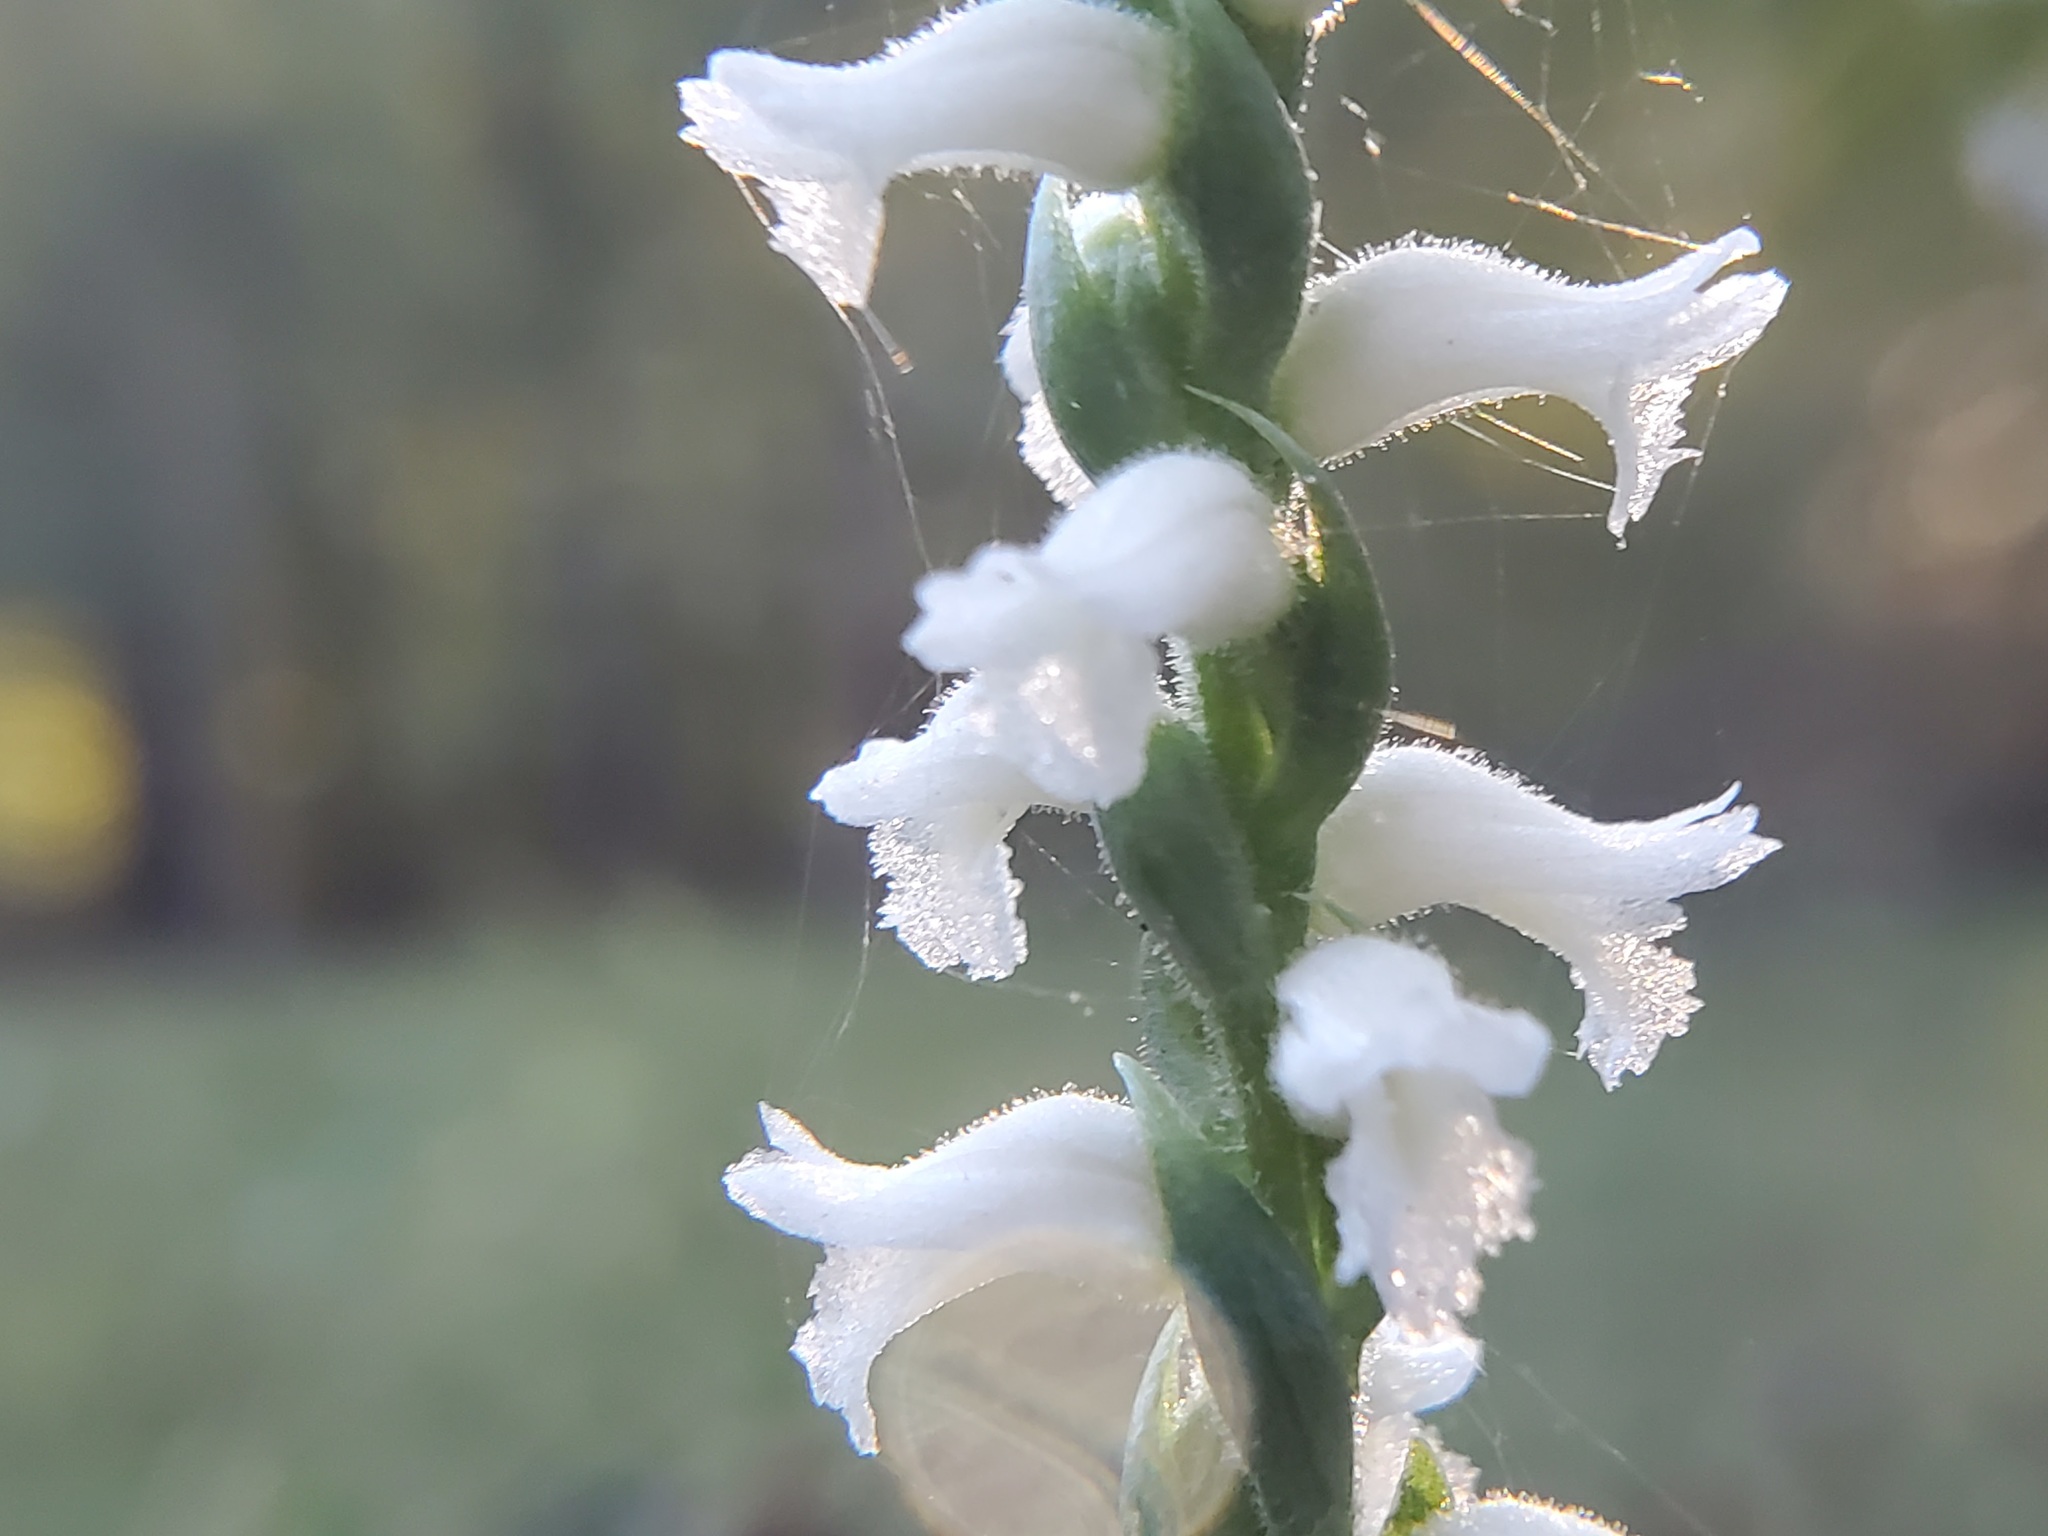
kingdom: Plantae
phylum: Tracheophyta
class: Liliopsida
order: Asparagales
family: Orchidaceae
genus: Spiranthes
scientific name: Spiranthes cernua
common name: Dropping ladies'-tresses
